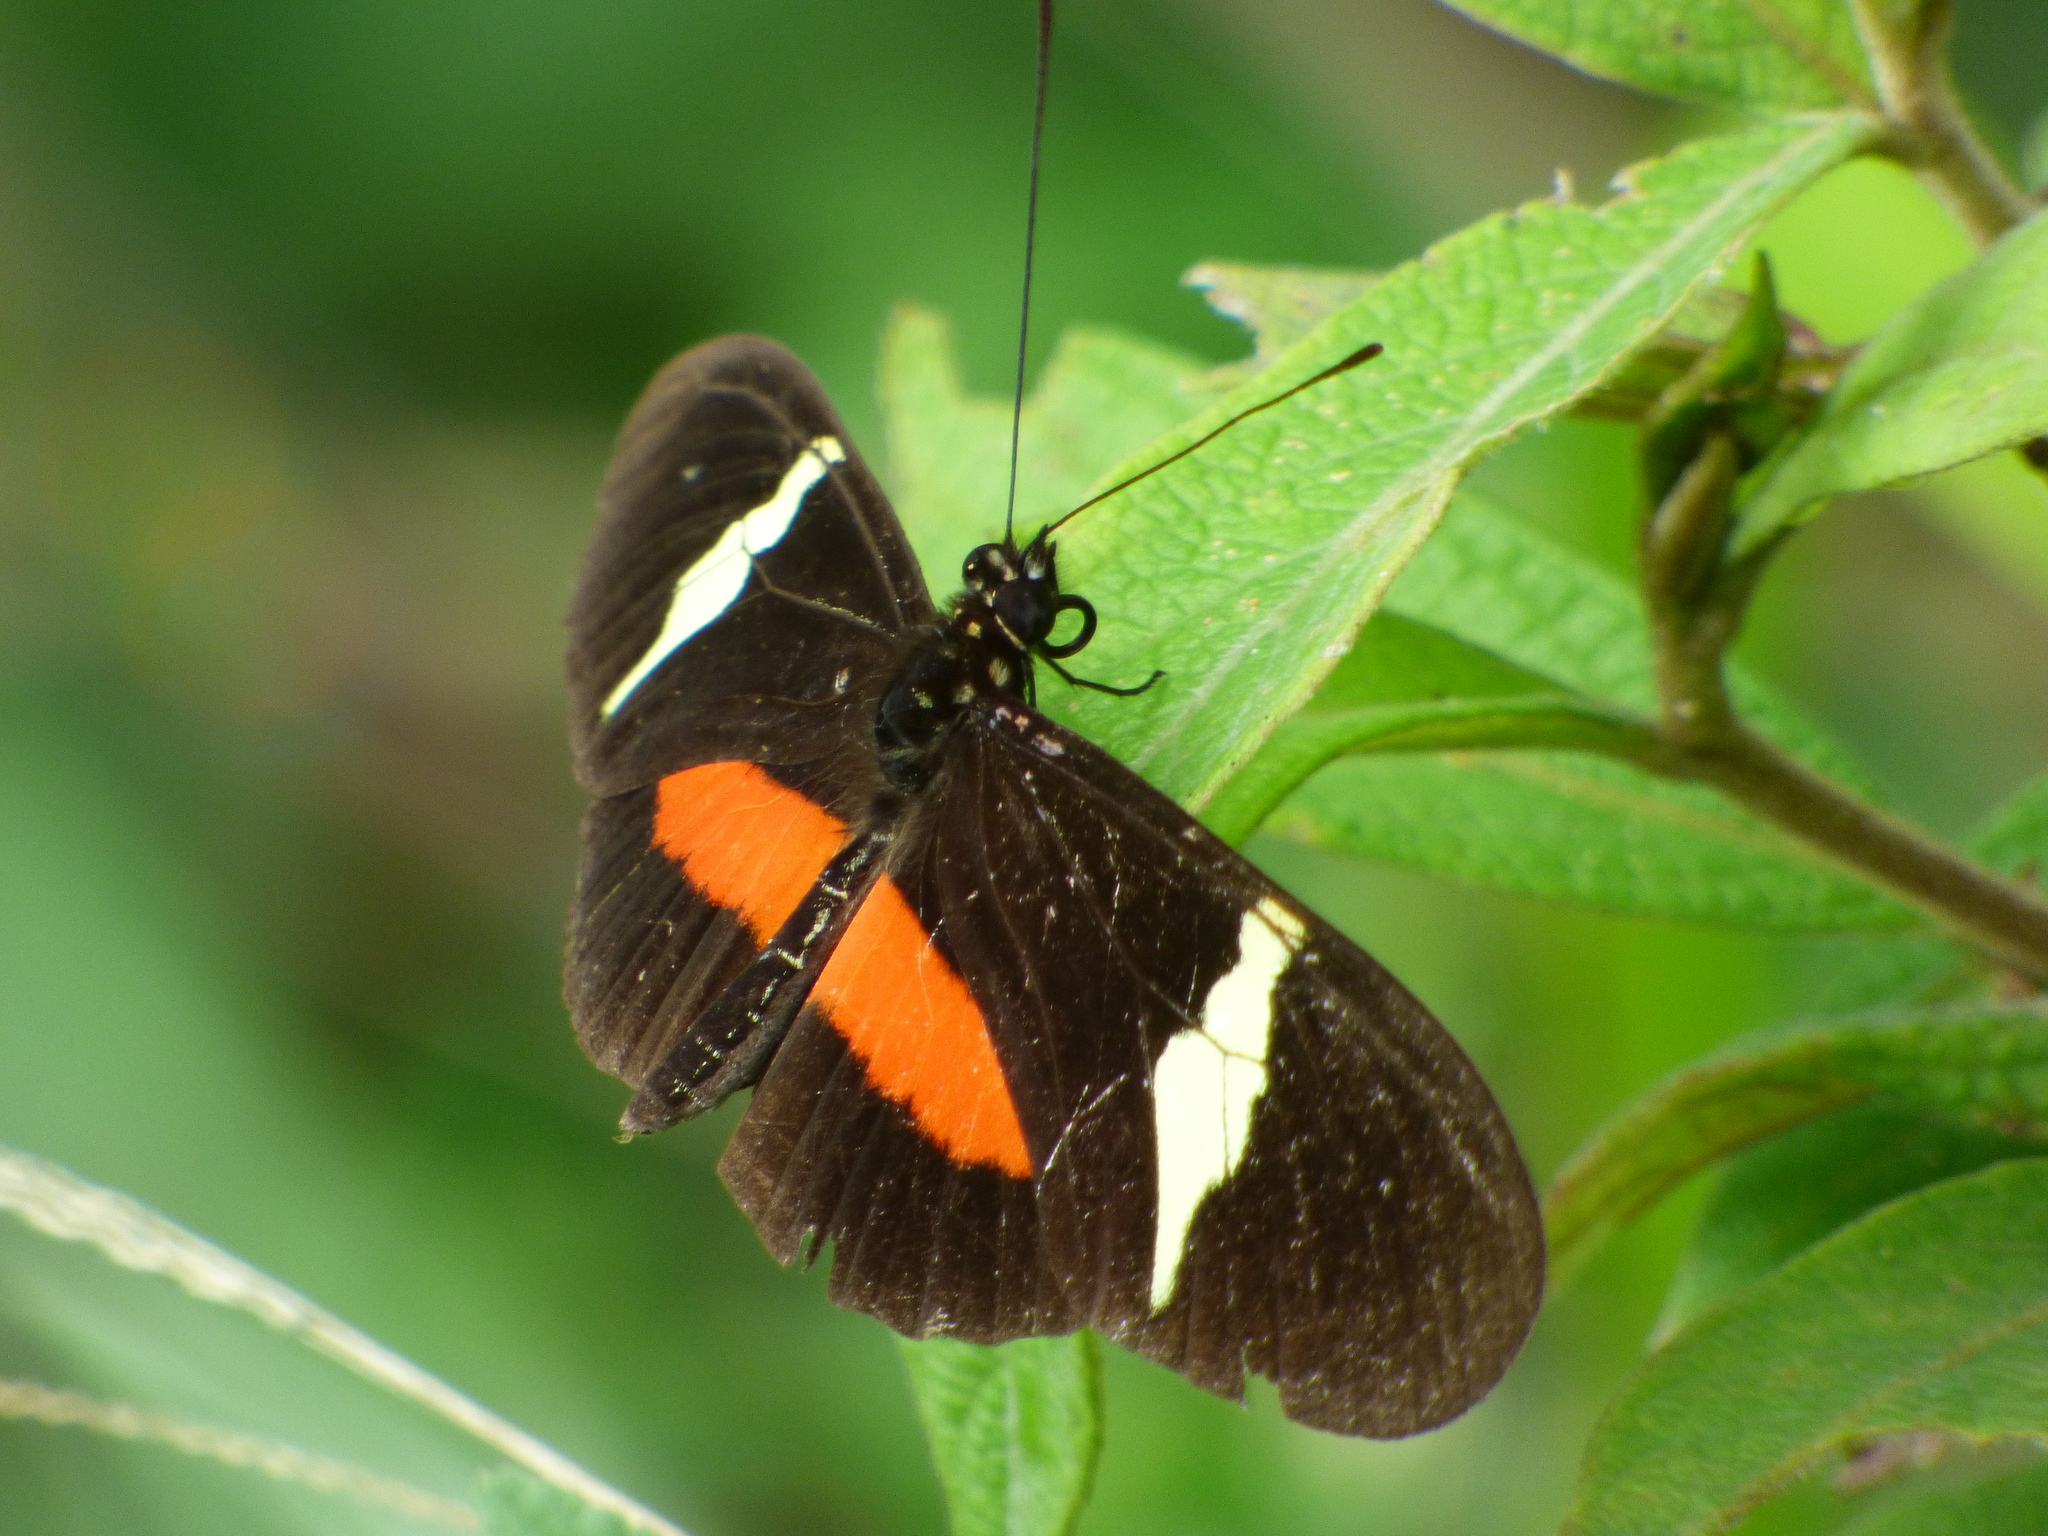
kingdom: Animalia
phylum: Arthropoda
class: Insecta
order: Lepidoptera
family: Nymphalidae
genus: Heliconius
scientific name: Heliconius clysonymus
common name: Clysonymus longwing
